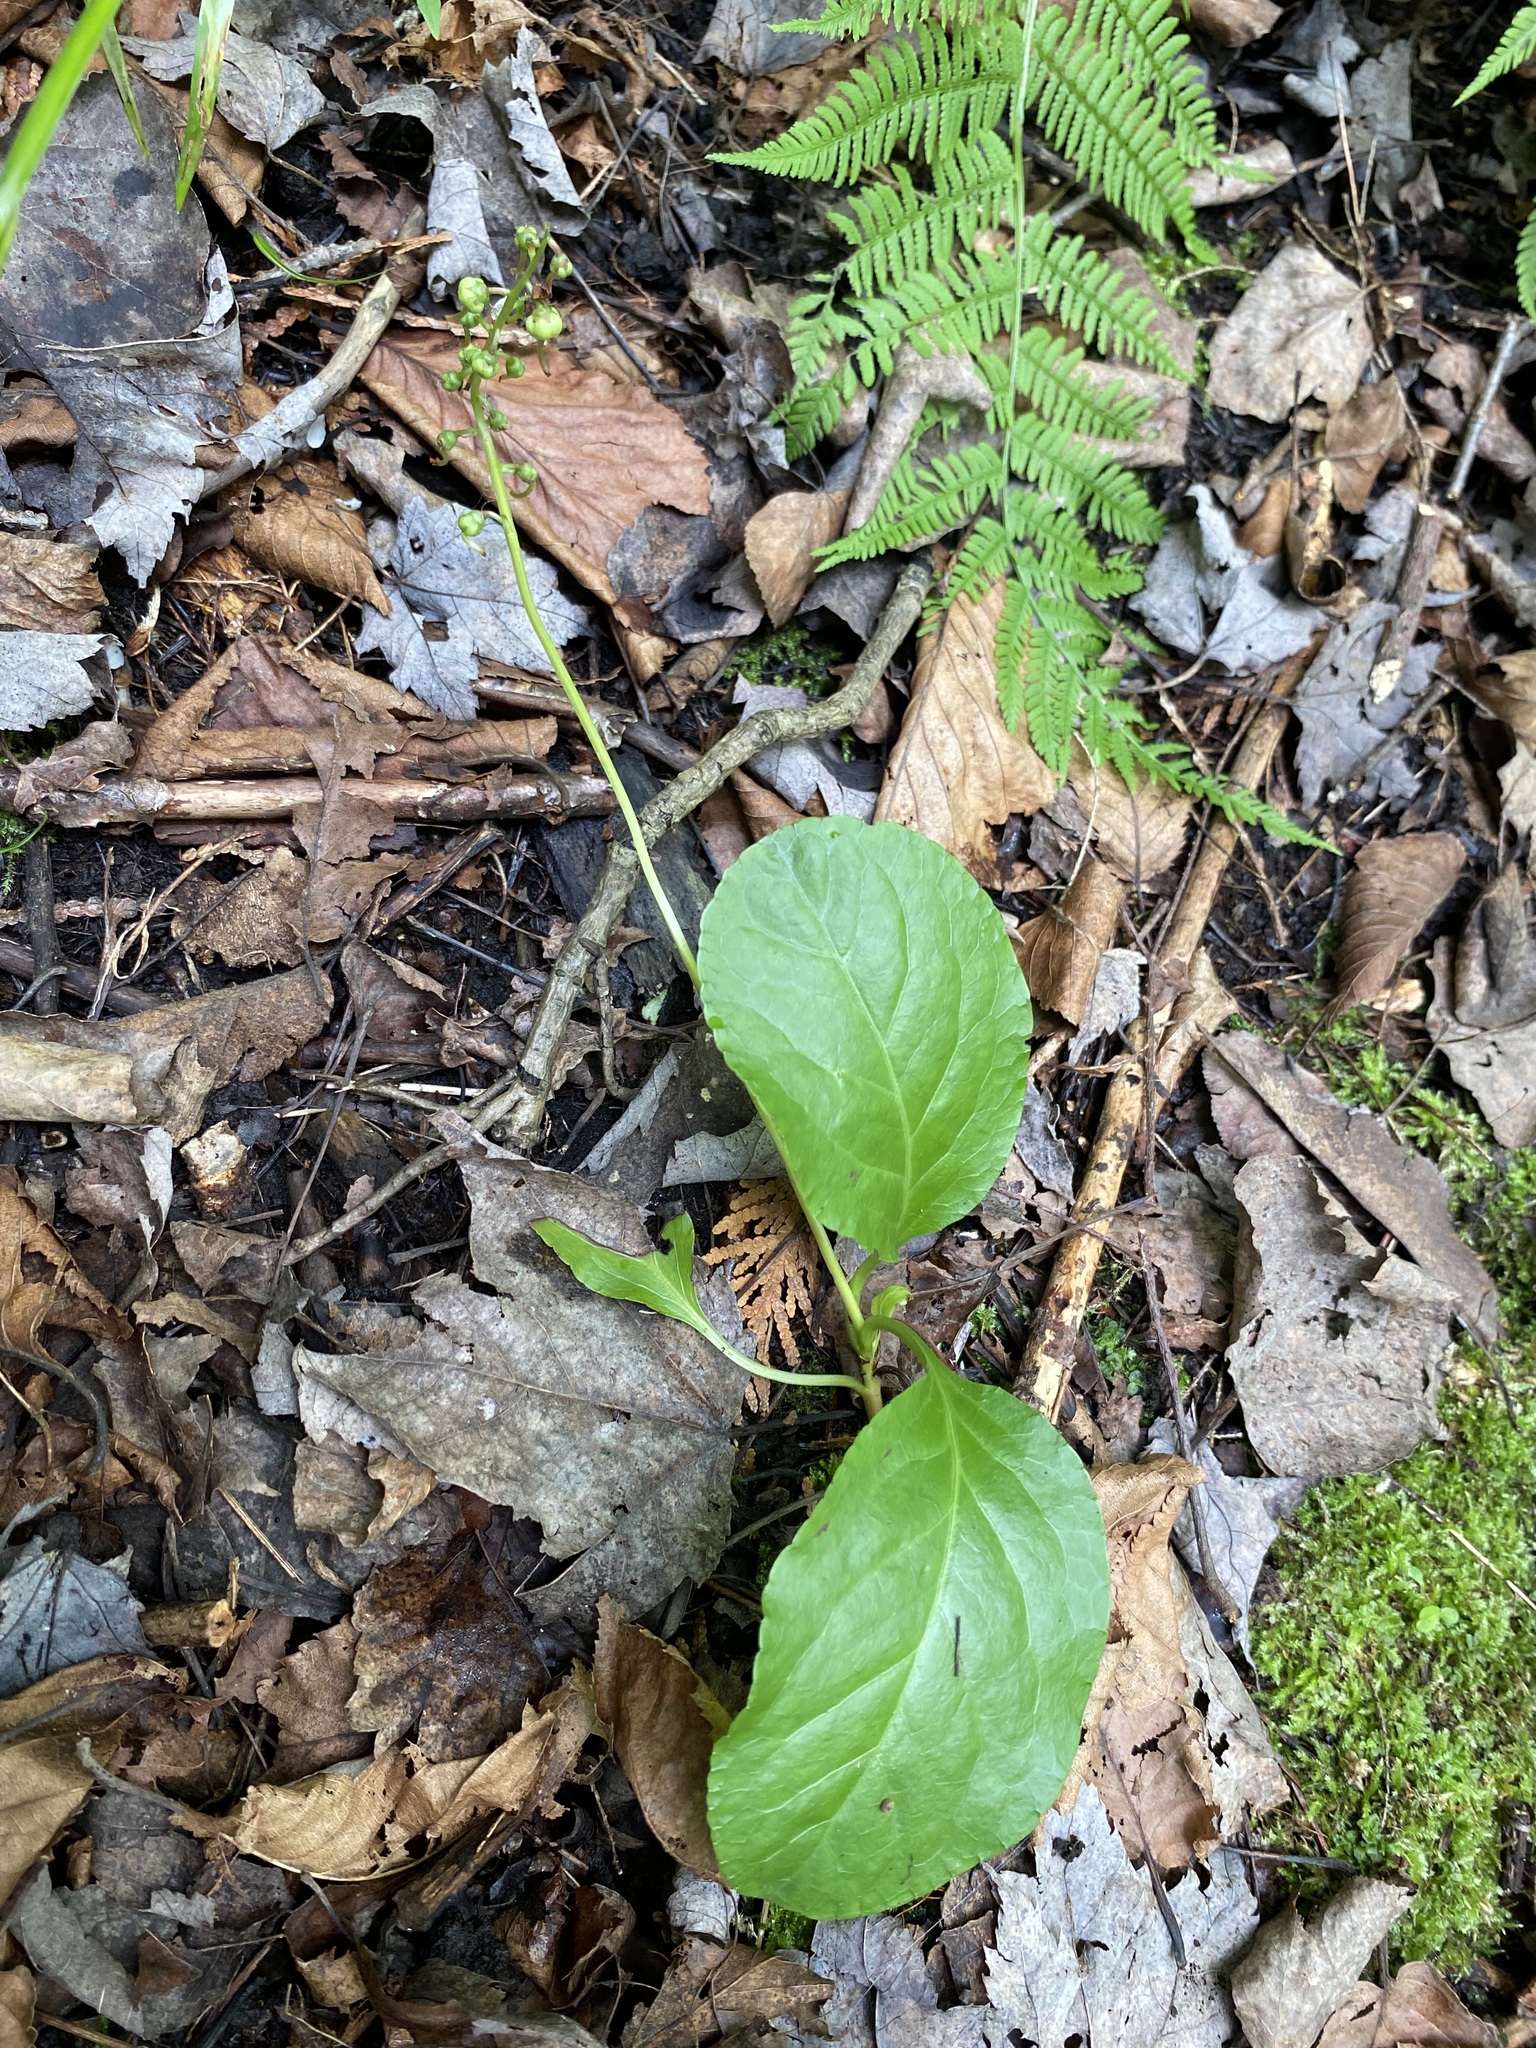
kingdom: Plantae
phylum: Tracheophyta
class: Magnoliopsida
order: Ericales
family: Ericaceae
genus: Pyrola
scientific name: Pyrola elliptica
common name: Shinleaf
